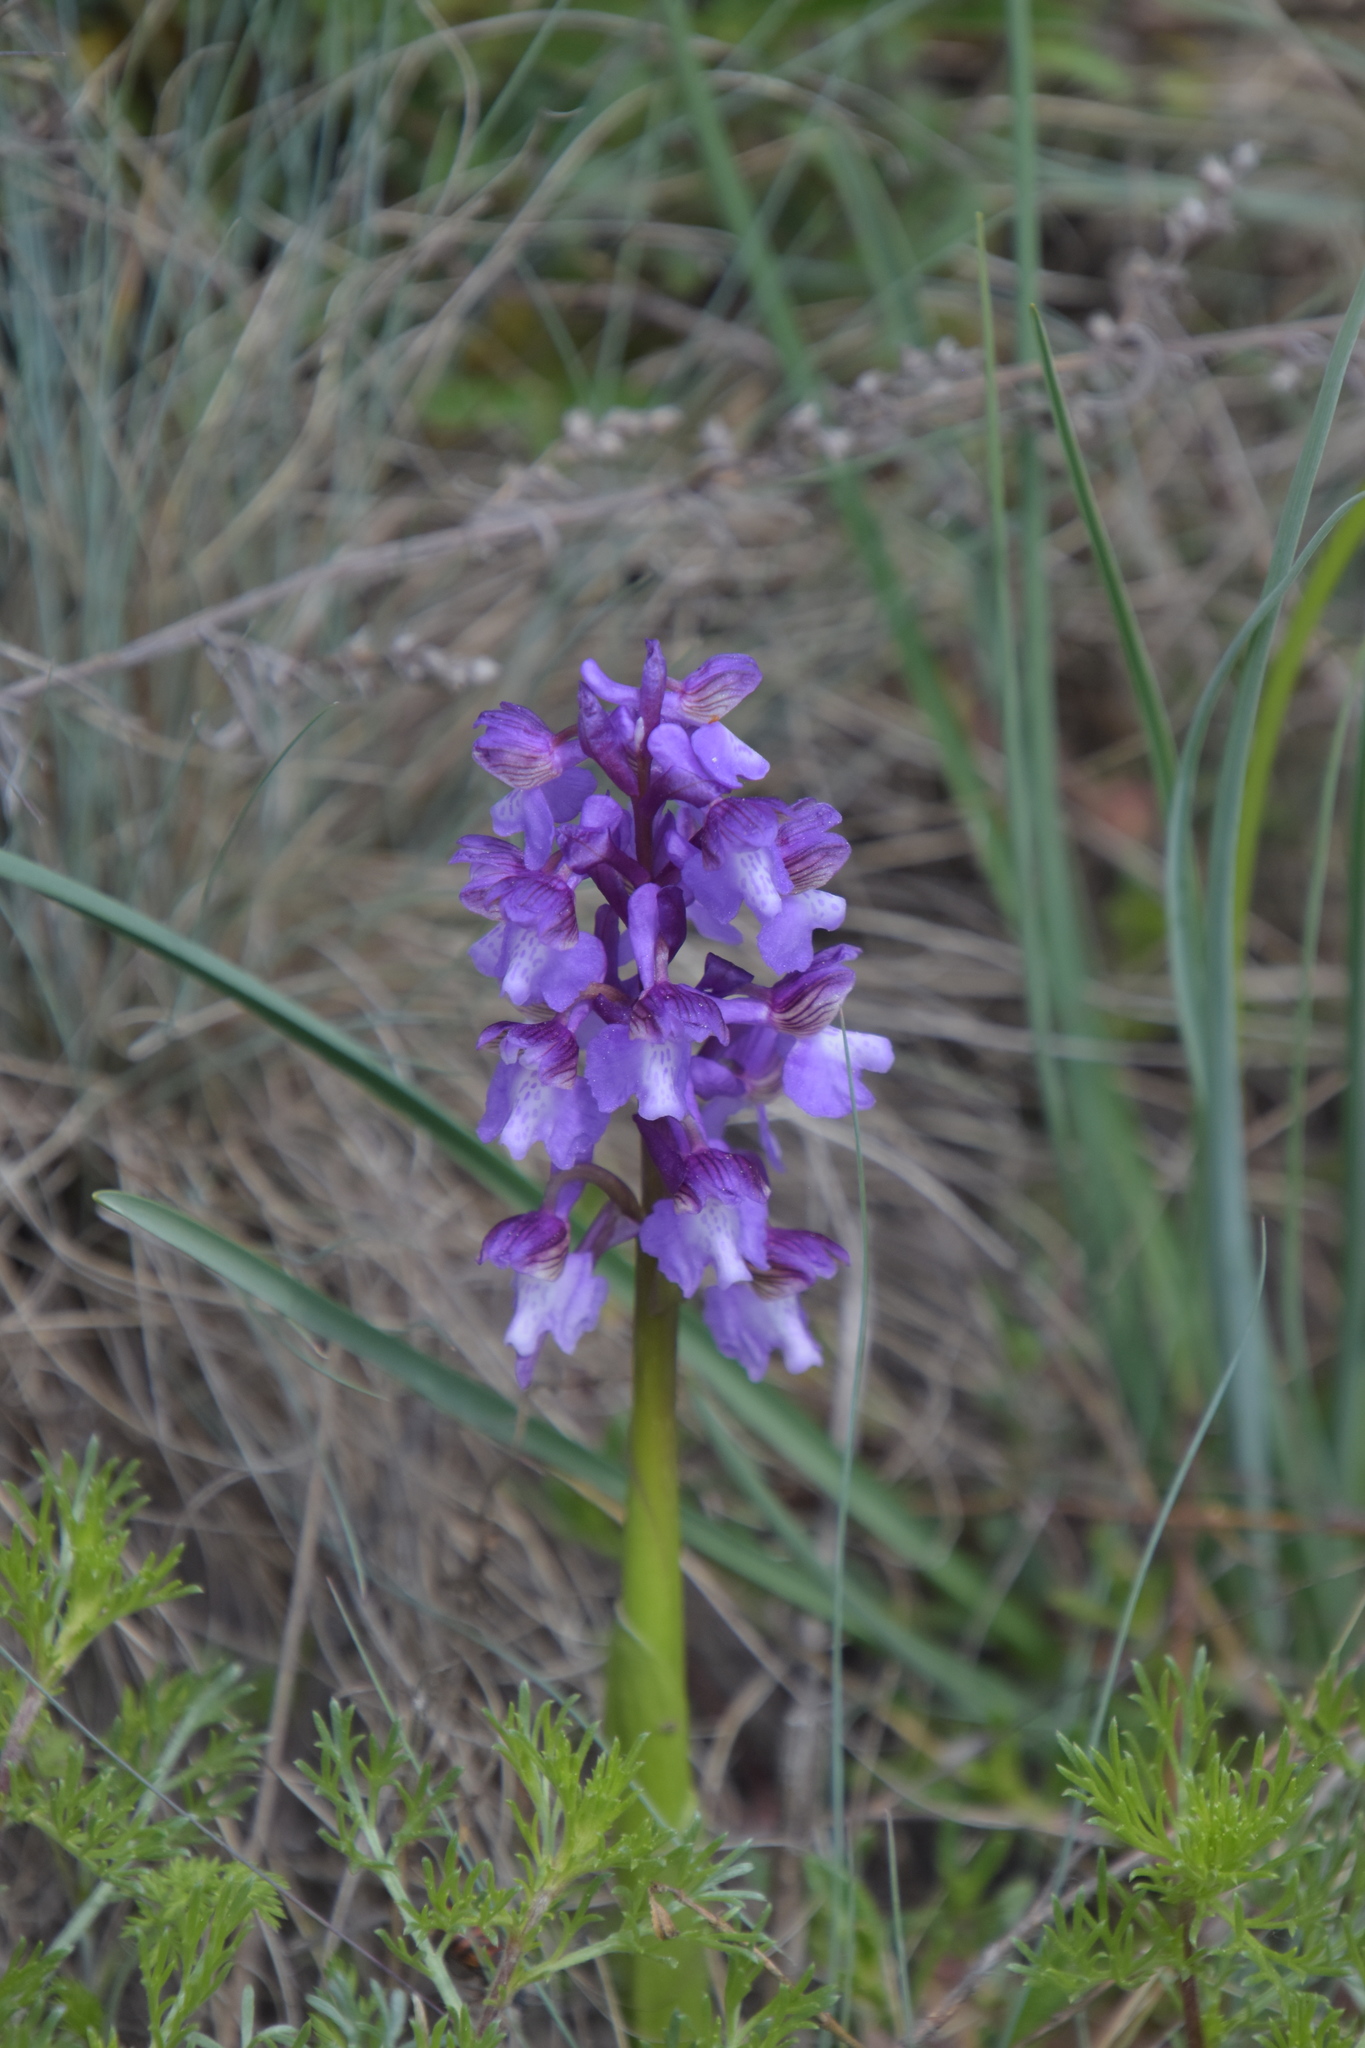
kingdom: Plantae
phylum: Tracheophyta
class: Liliopsida
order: Asparagales
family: Orchidaceae
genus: Anacamptis
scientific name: Anacamptis morio
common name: Green-winged orchid
